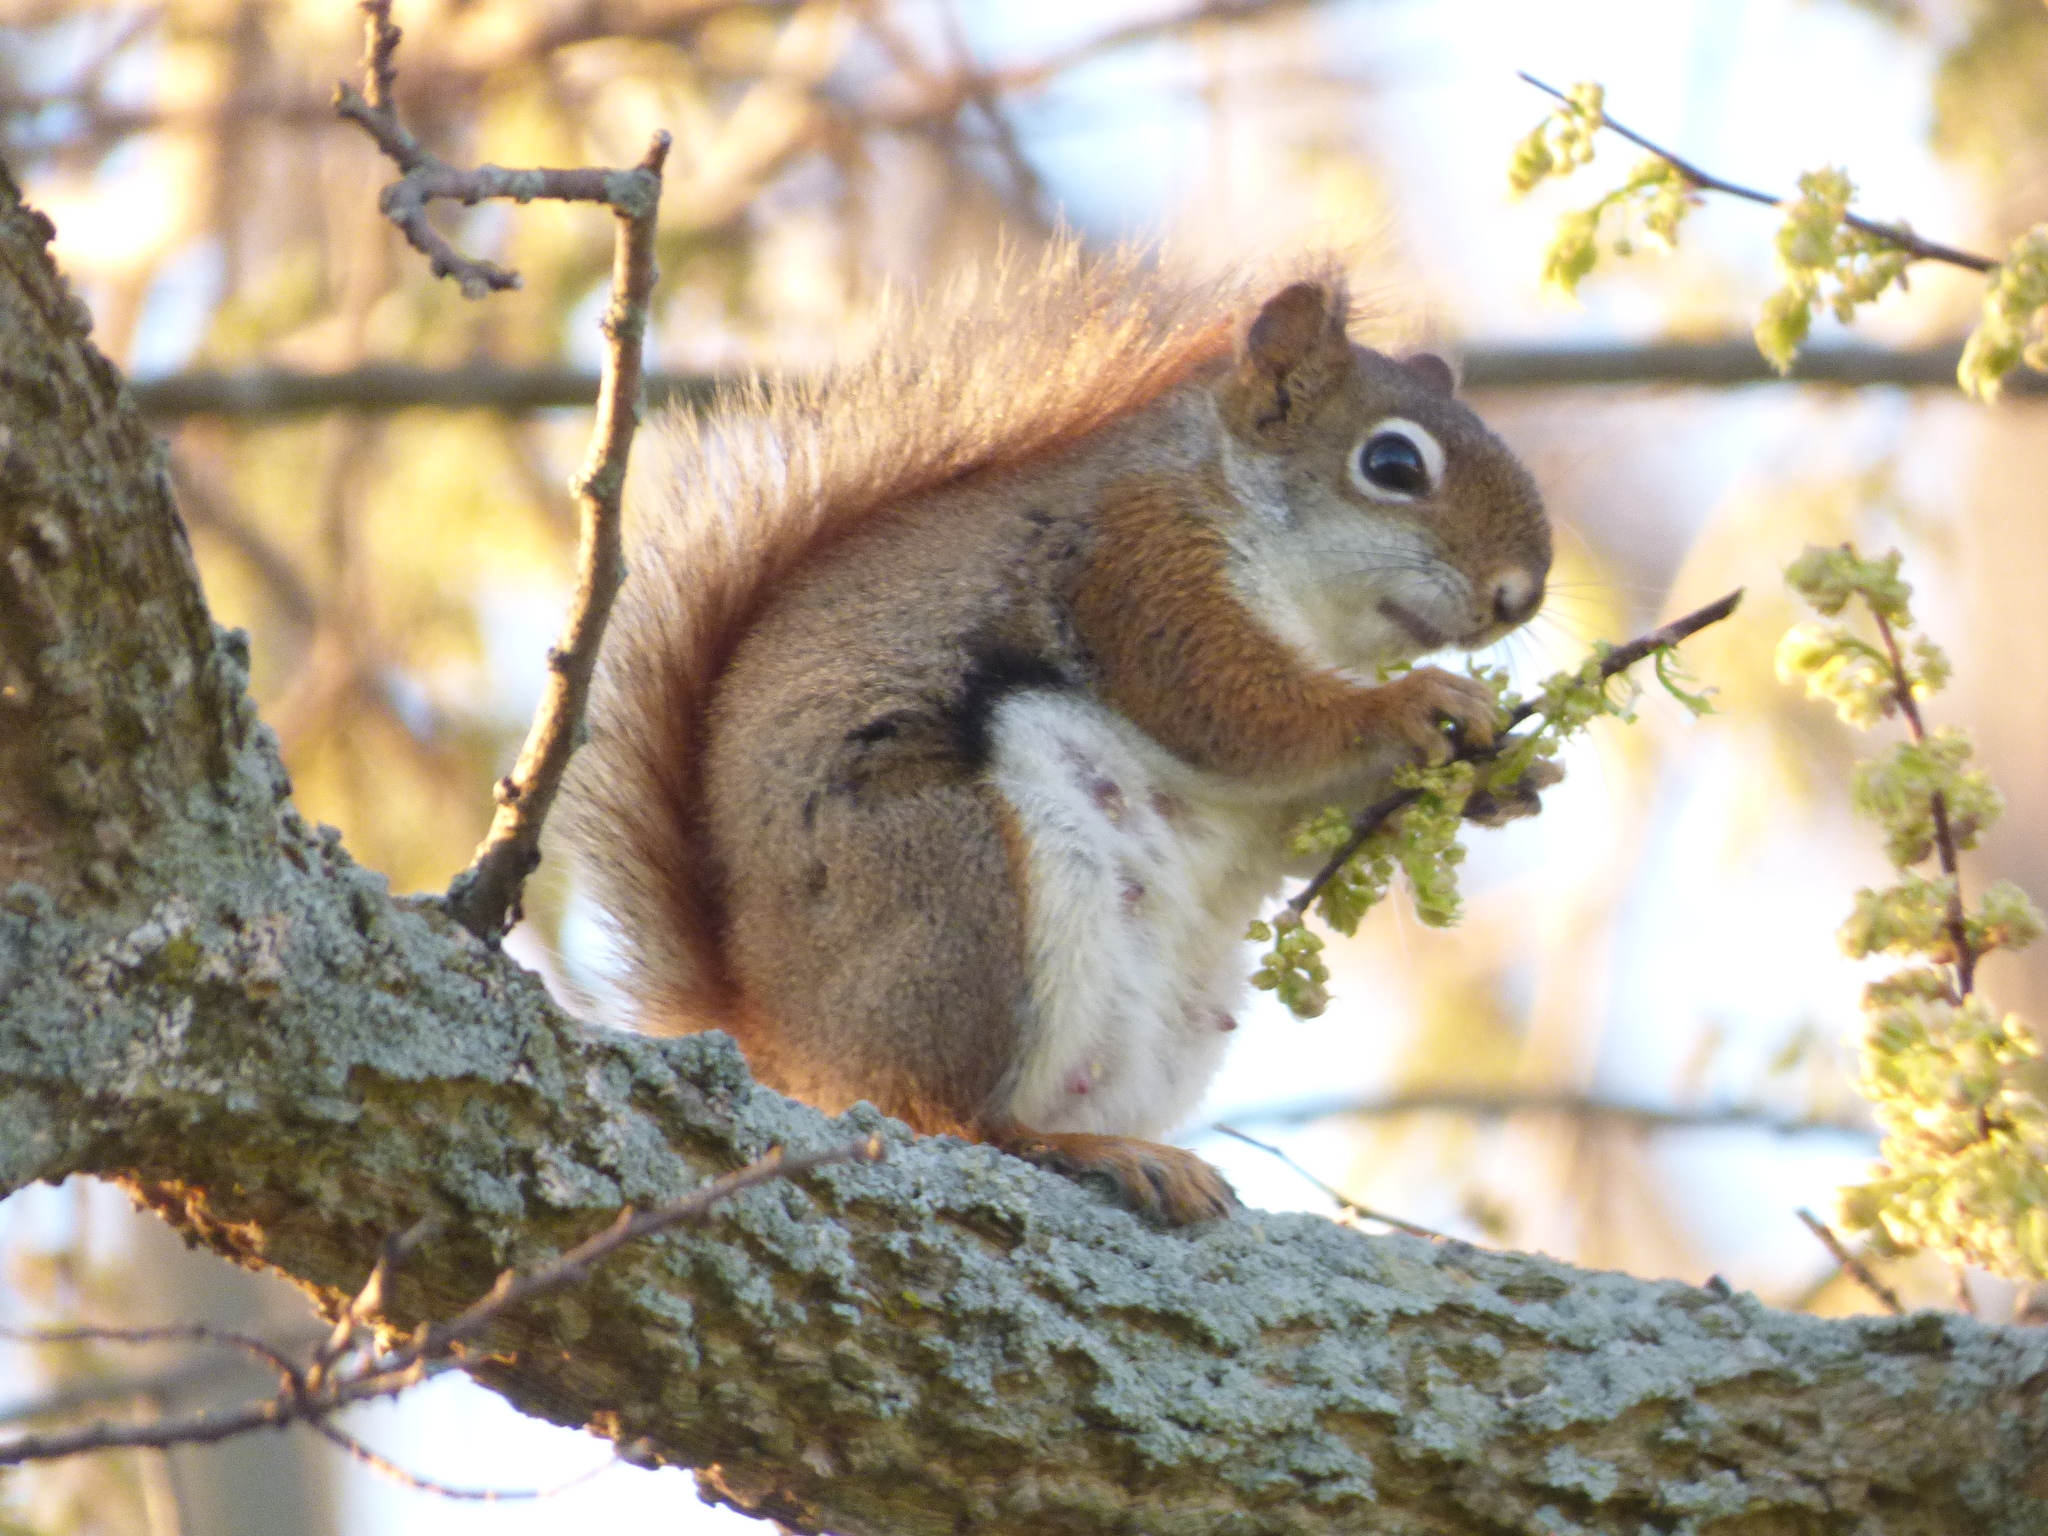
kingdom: Animalia
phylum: Chordata
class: Mammalia
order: Rodentia
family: Sciuridae
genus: Tamiasciurus
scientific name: Tamiasciurus hudsonicus
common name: Red squirrel
